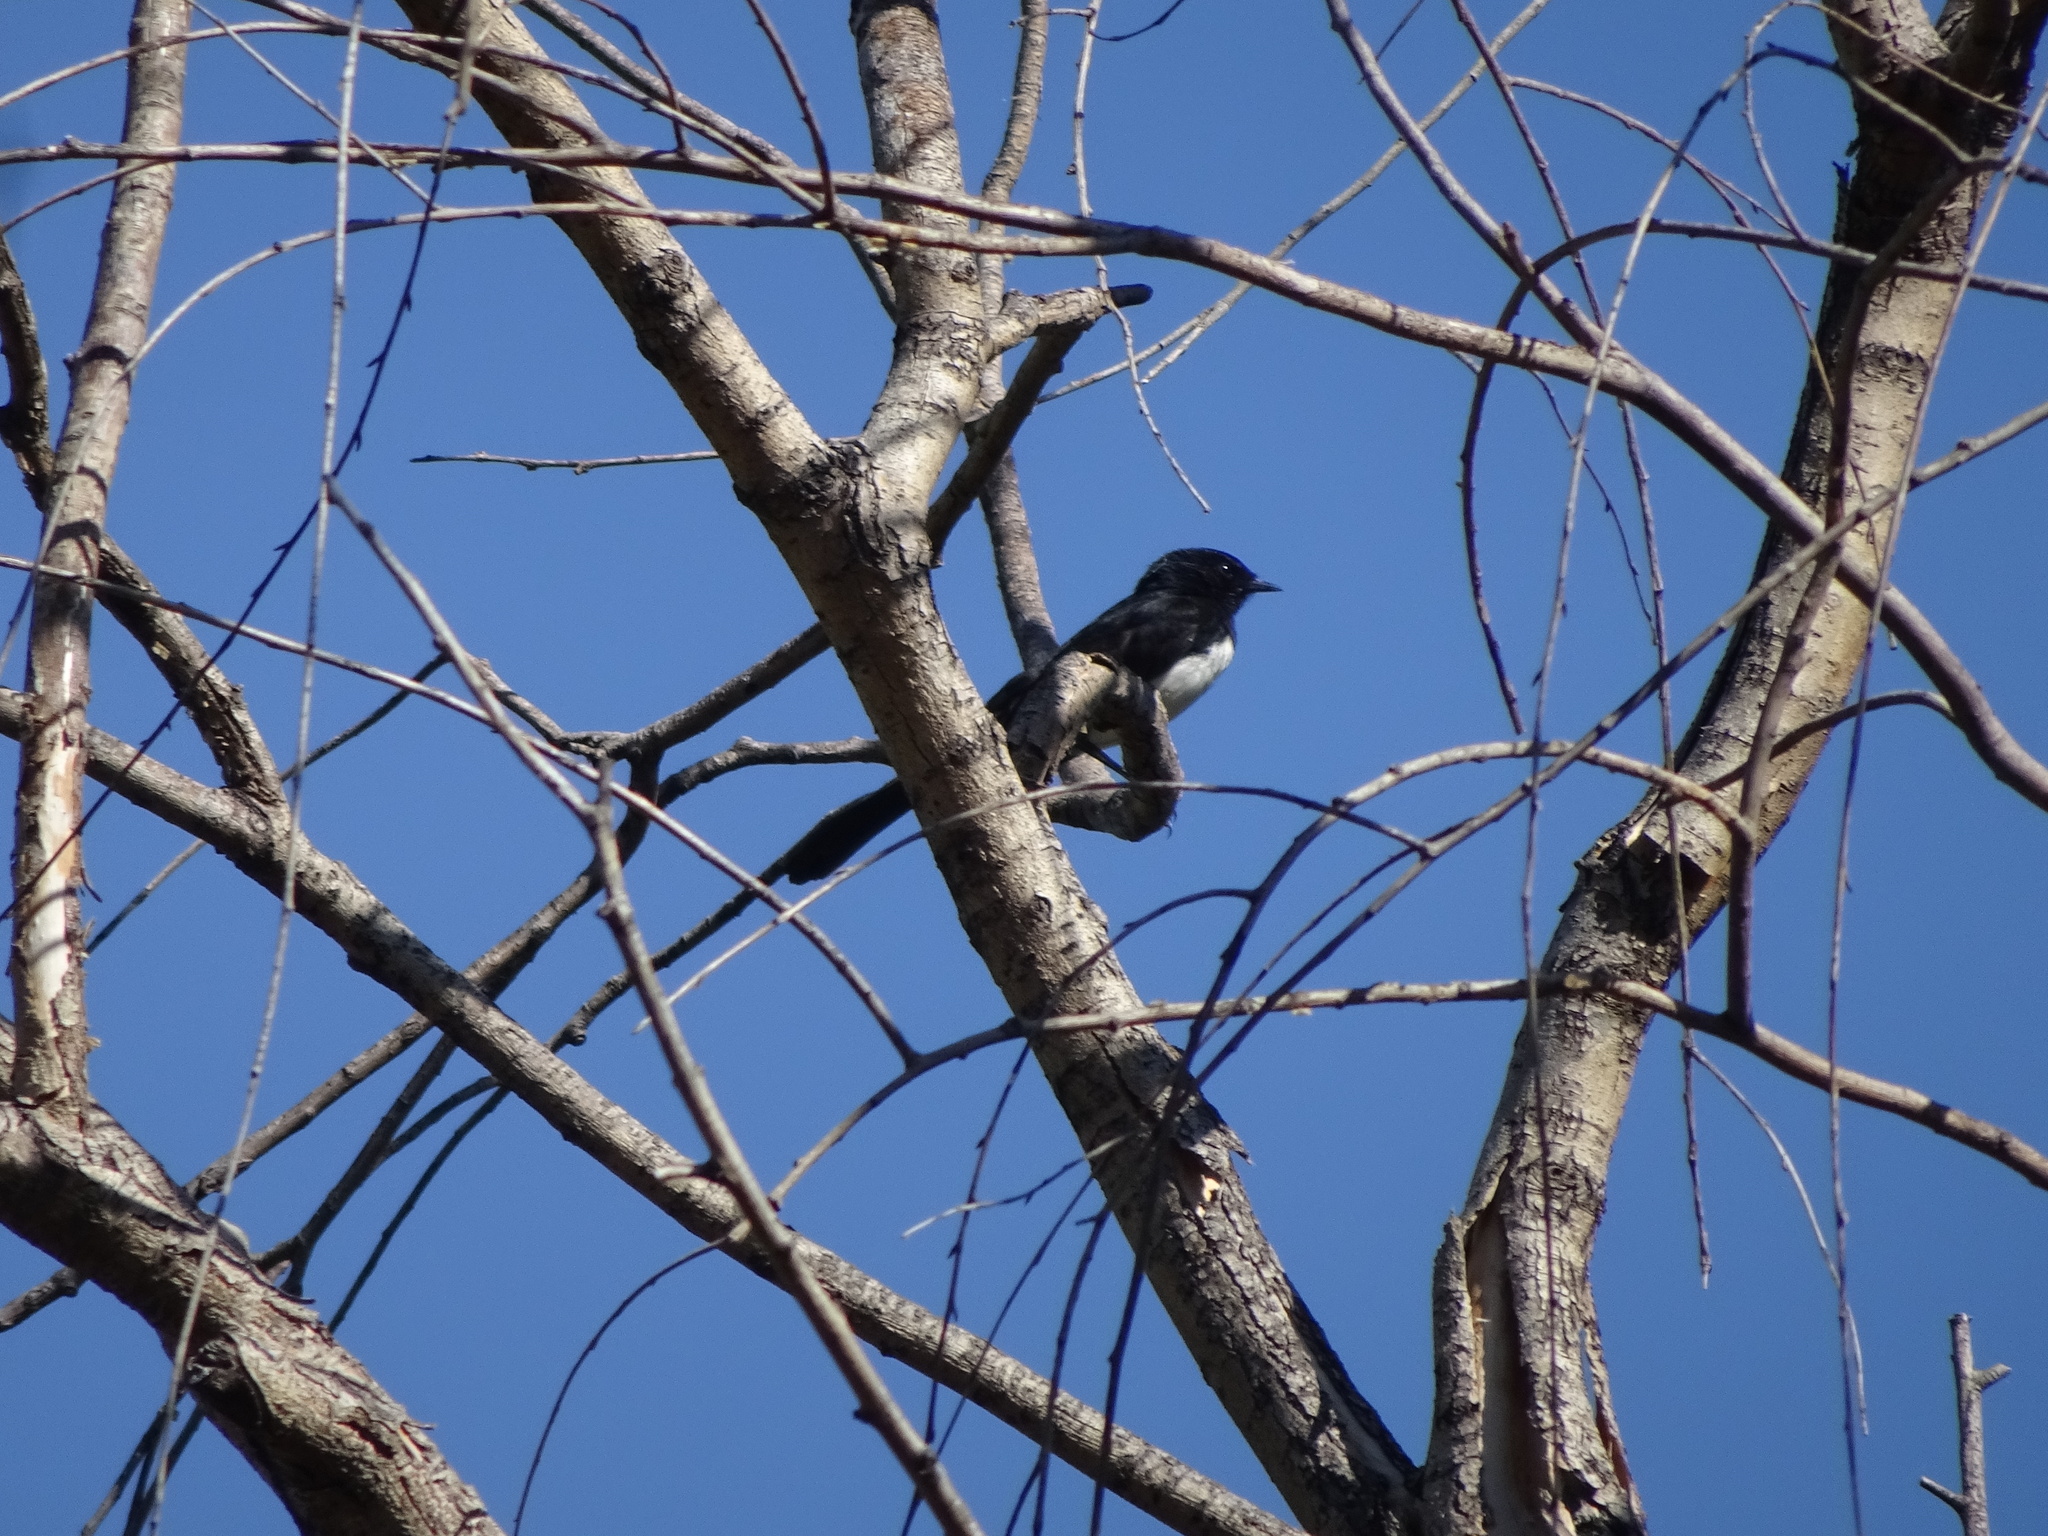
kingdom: Animalia
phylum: Chordata
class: Aves
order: Passeriformes
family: Rhipiduridae
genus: Rhipidura
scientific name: Rhipidura leucophrys
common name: Willie wagtail
